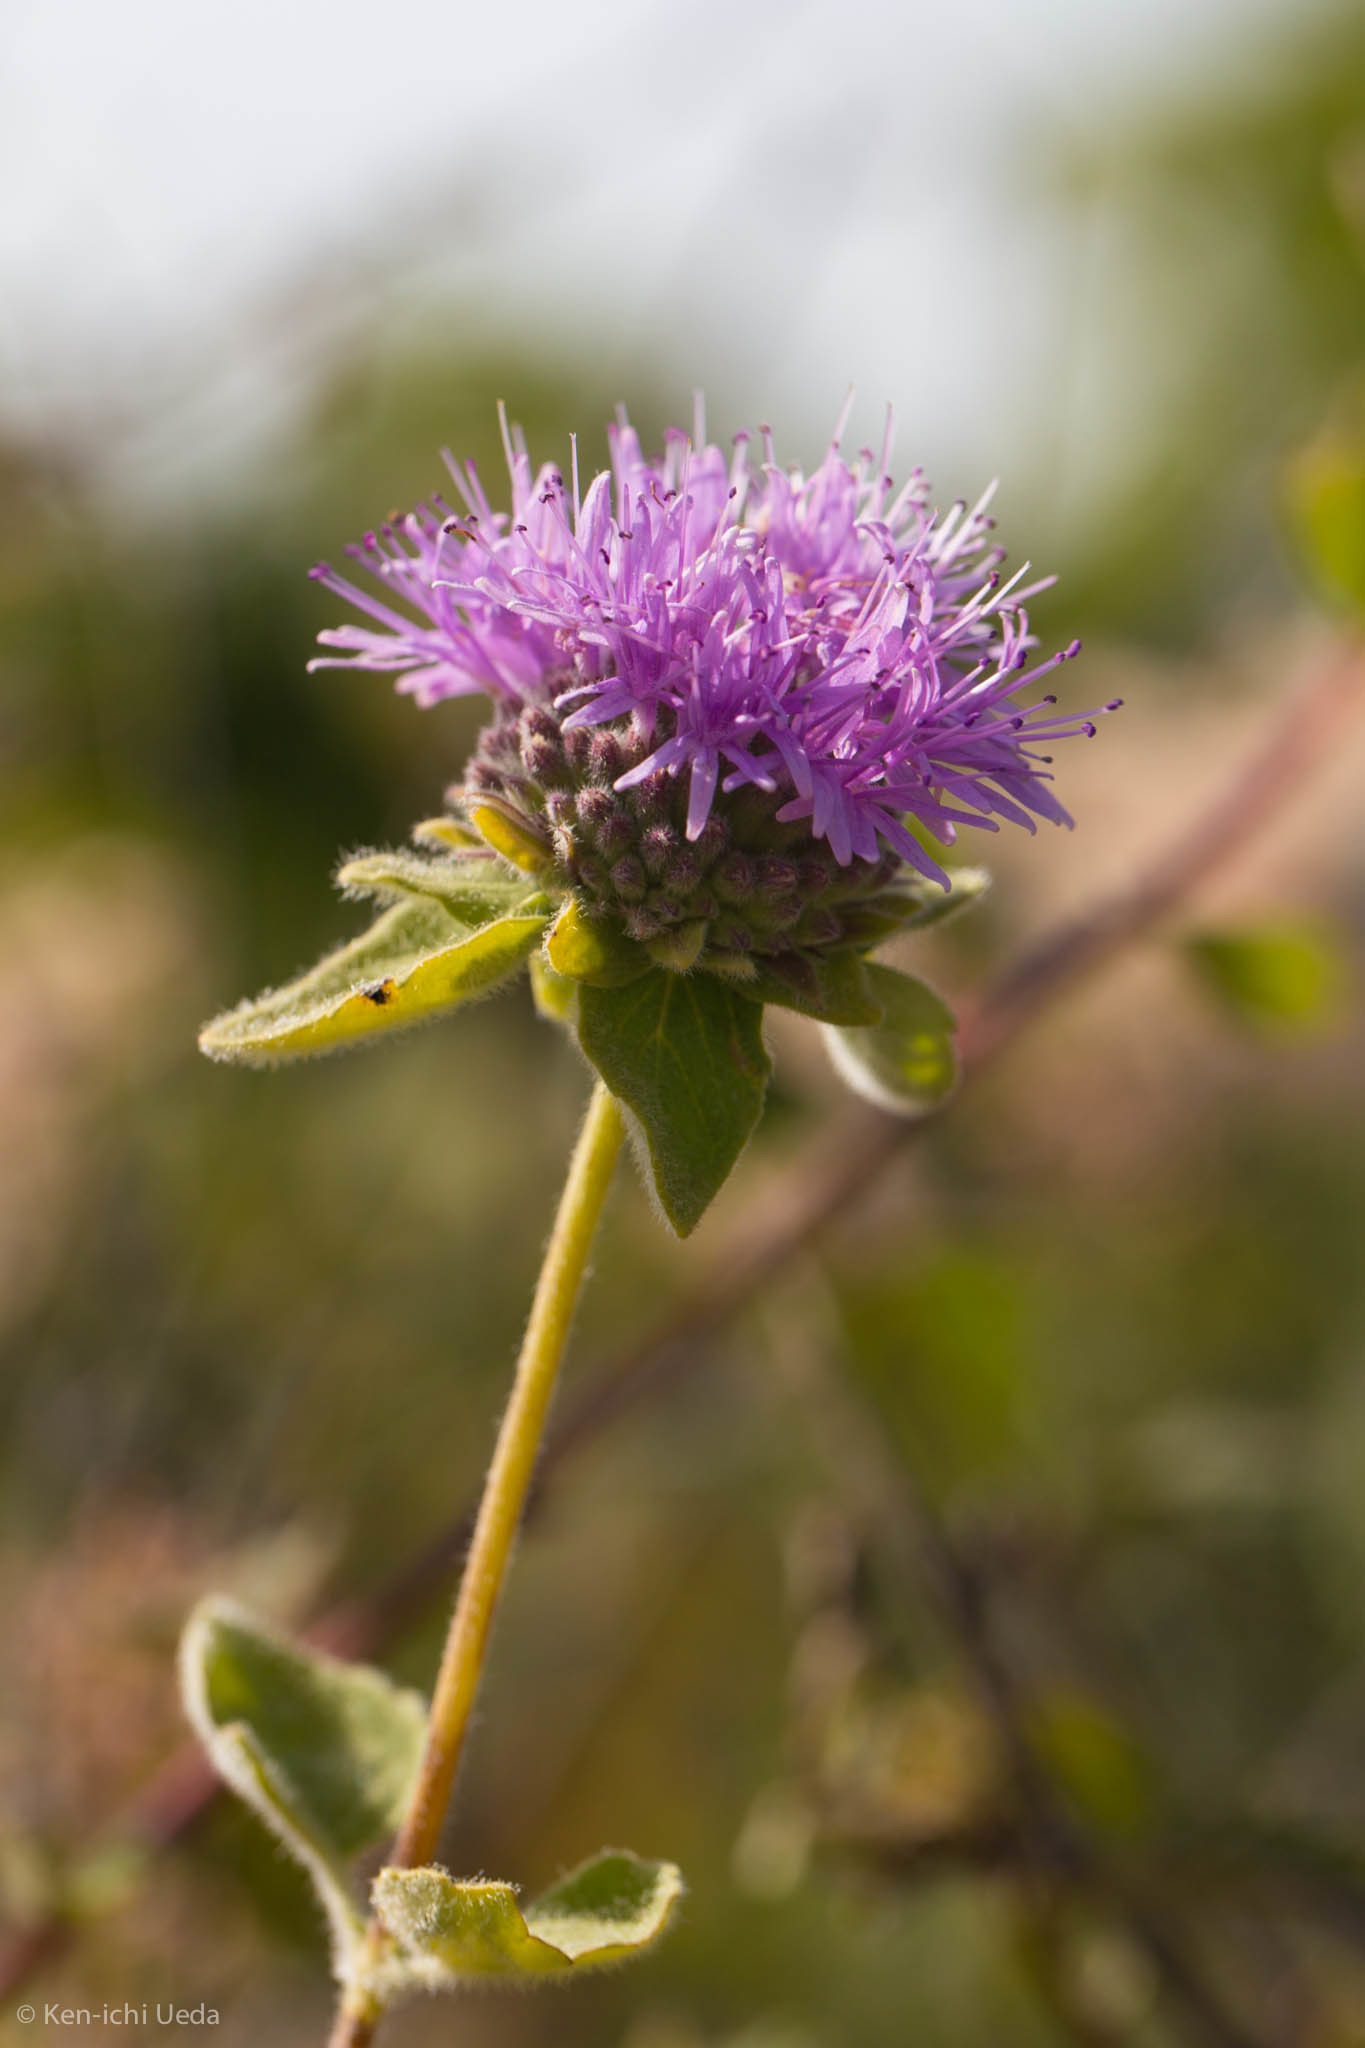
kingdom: Plantae
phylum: Tracheophyta
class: Magnoliopsida
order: Lamiales
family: Lamiaceae
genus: Monardella
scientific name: Monardella odoratissima
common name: Pacific monardella
